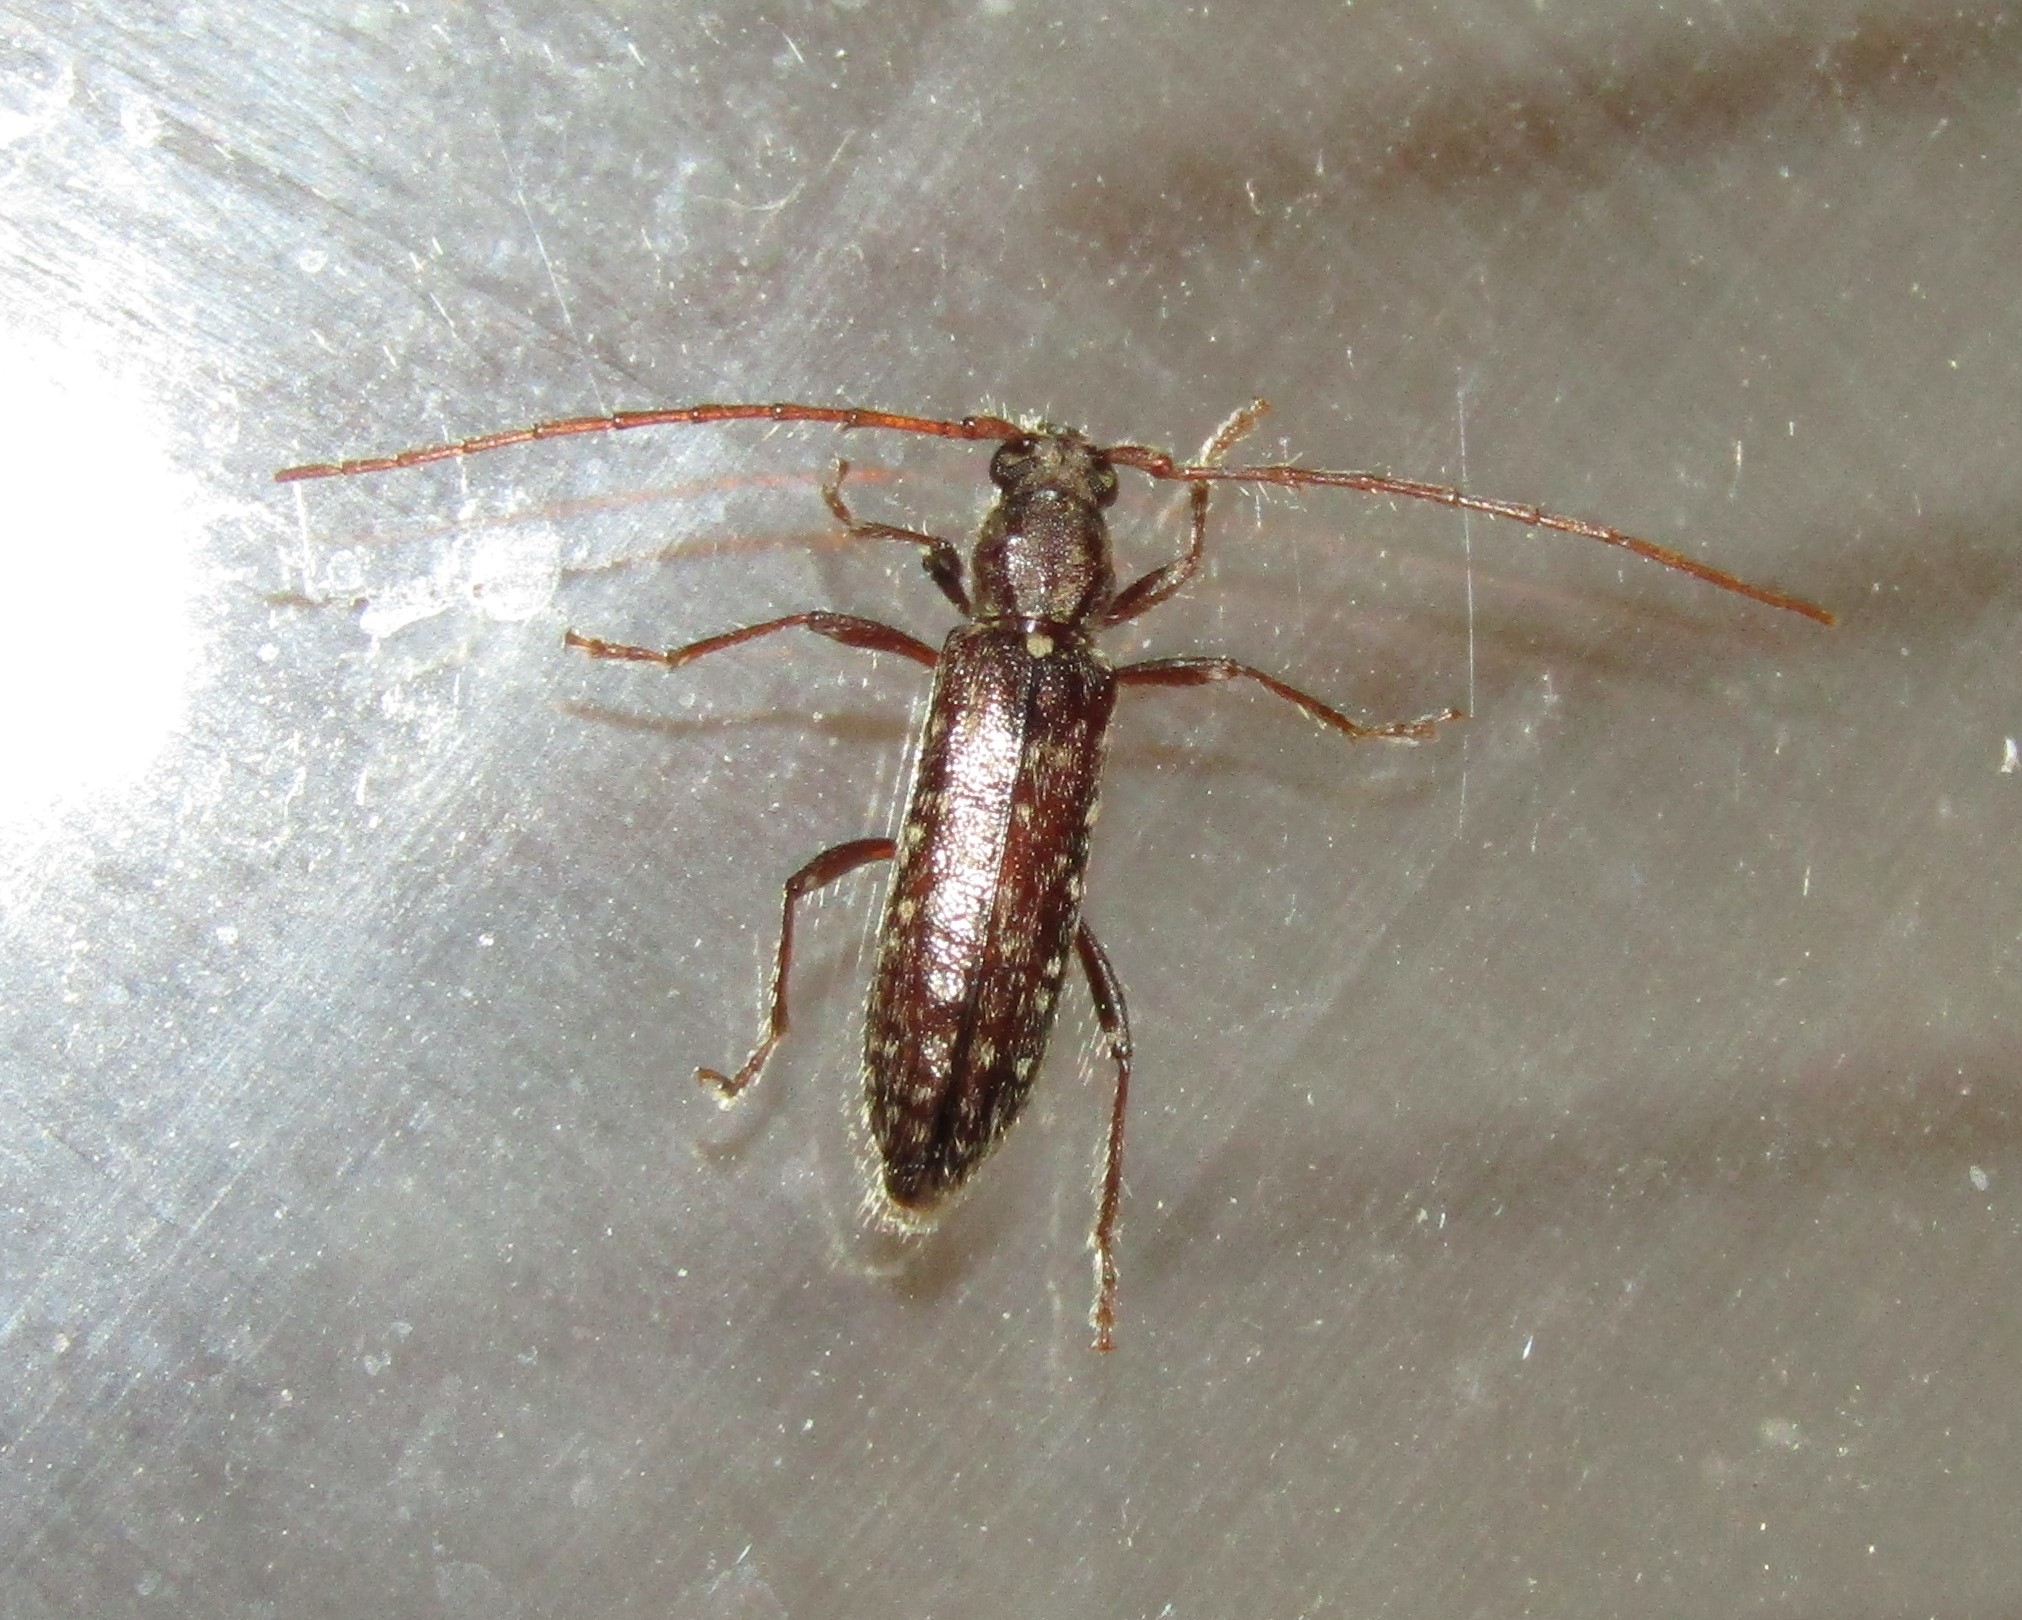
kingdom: Animalia
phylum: Arthropoda
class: Insecta
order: Coleoptera
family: Cerambycidae
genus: Anelaphus
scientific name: Anelaphus pumilus
